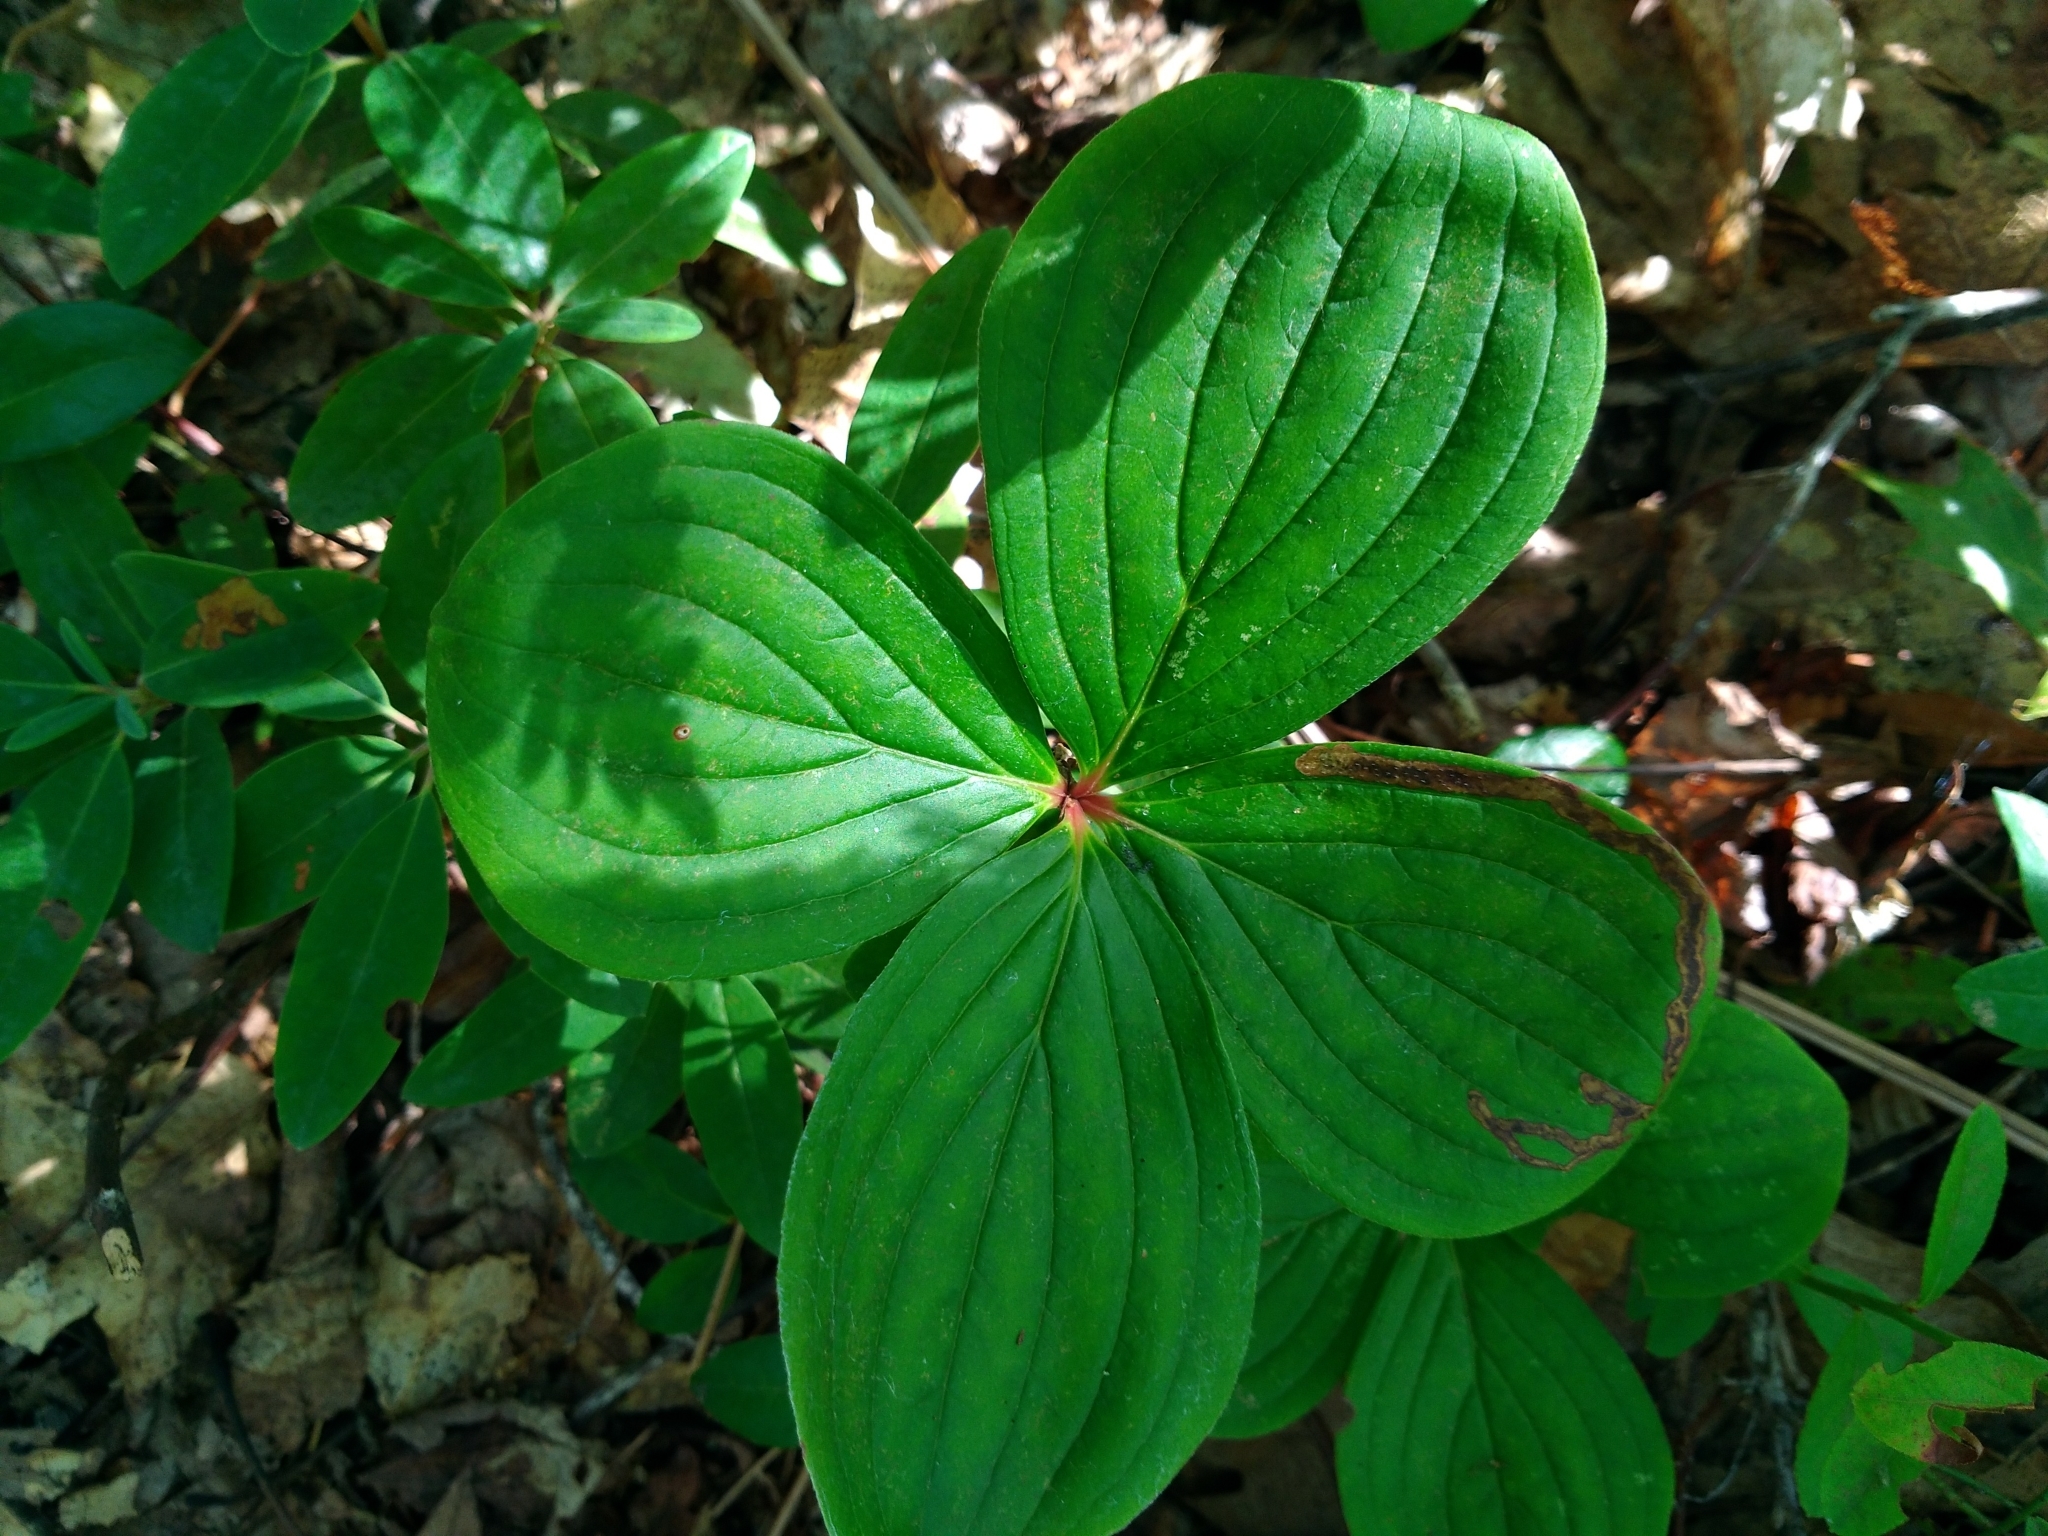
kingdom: Plantae
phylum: Tracheophyta
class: Magnoliopsida
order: Cornales
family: Cornaceae
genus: Cornus
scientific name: Cornus canadensis
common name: Creeping dogwood
